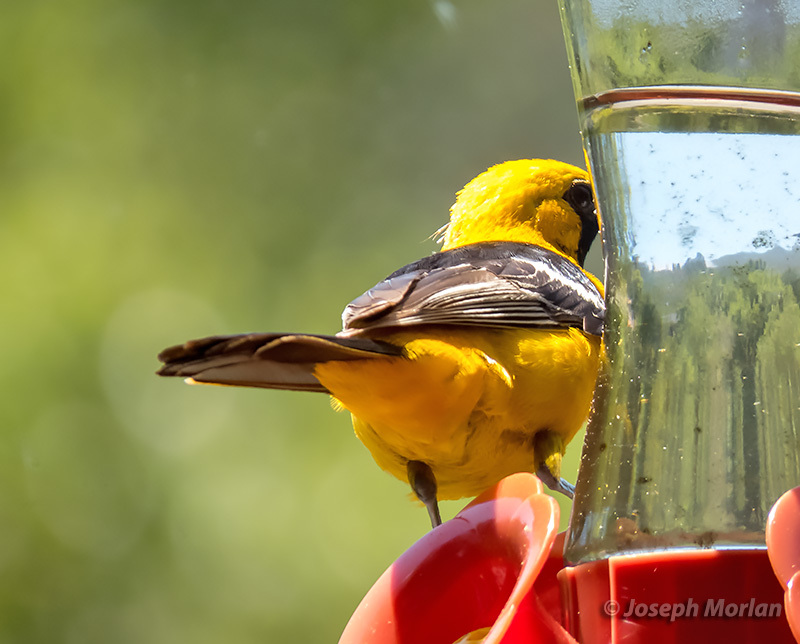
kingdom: Animalia
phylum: Chordata
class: Aves
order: Passeriformes
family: Icteridae
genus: Icterus
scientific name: Icterus cucullatus
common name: Hooded oriole
